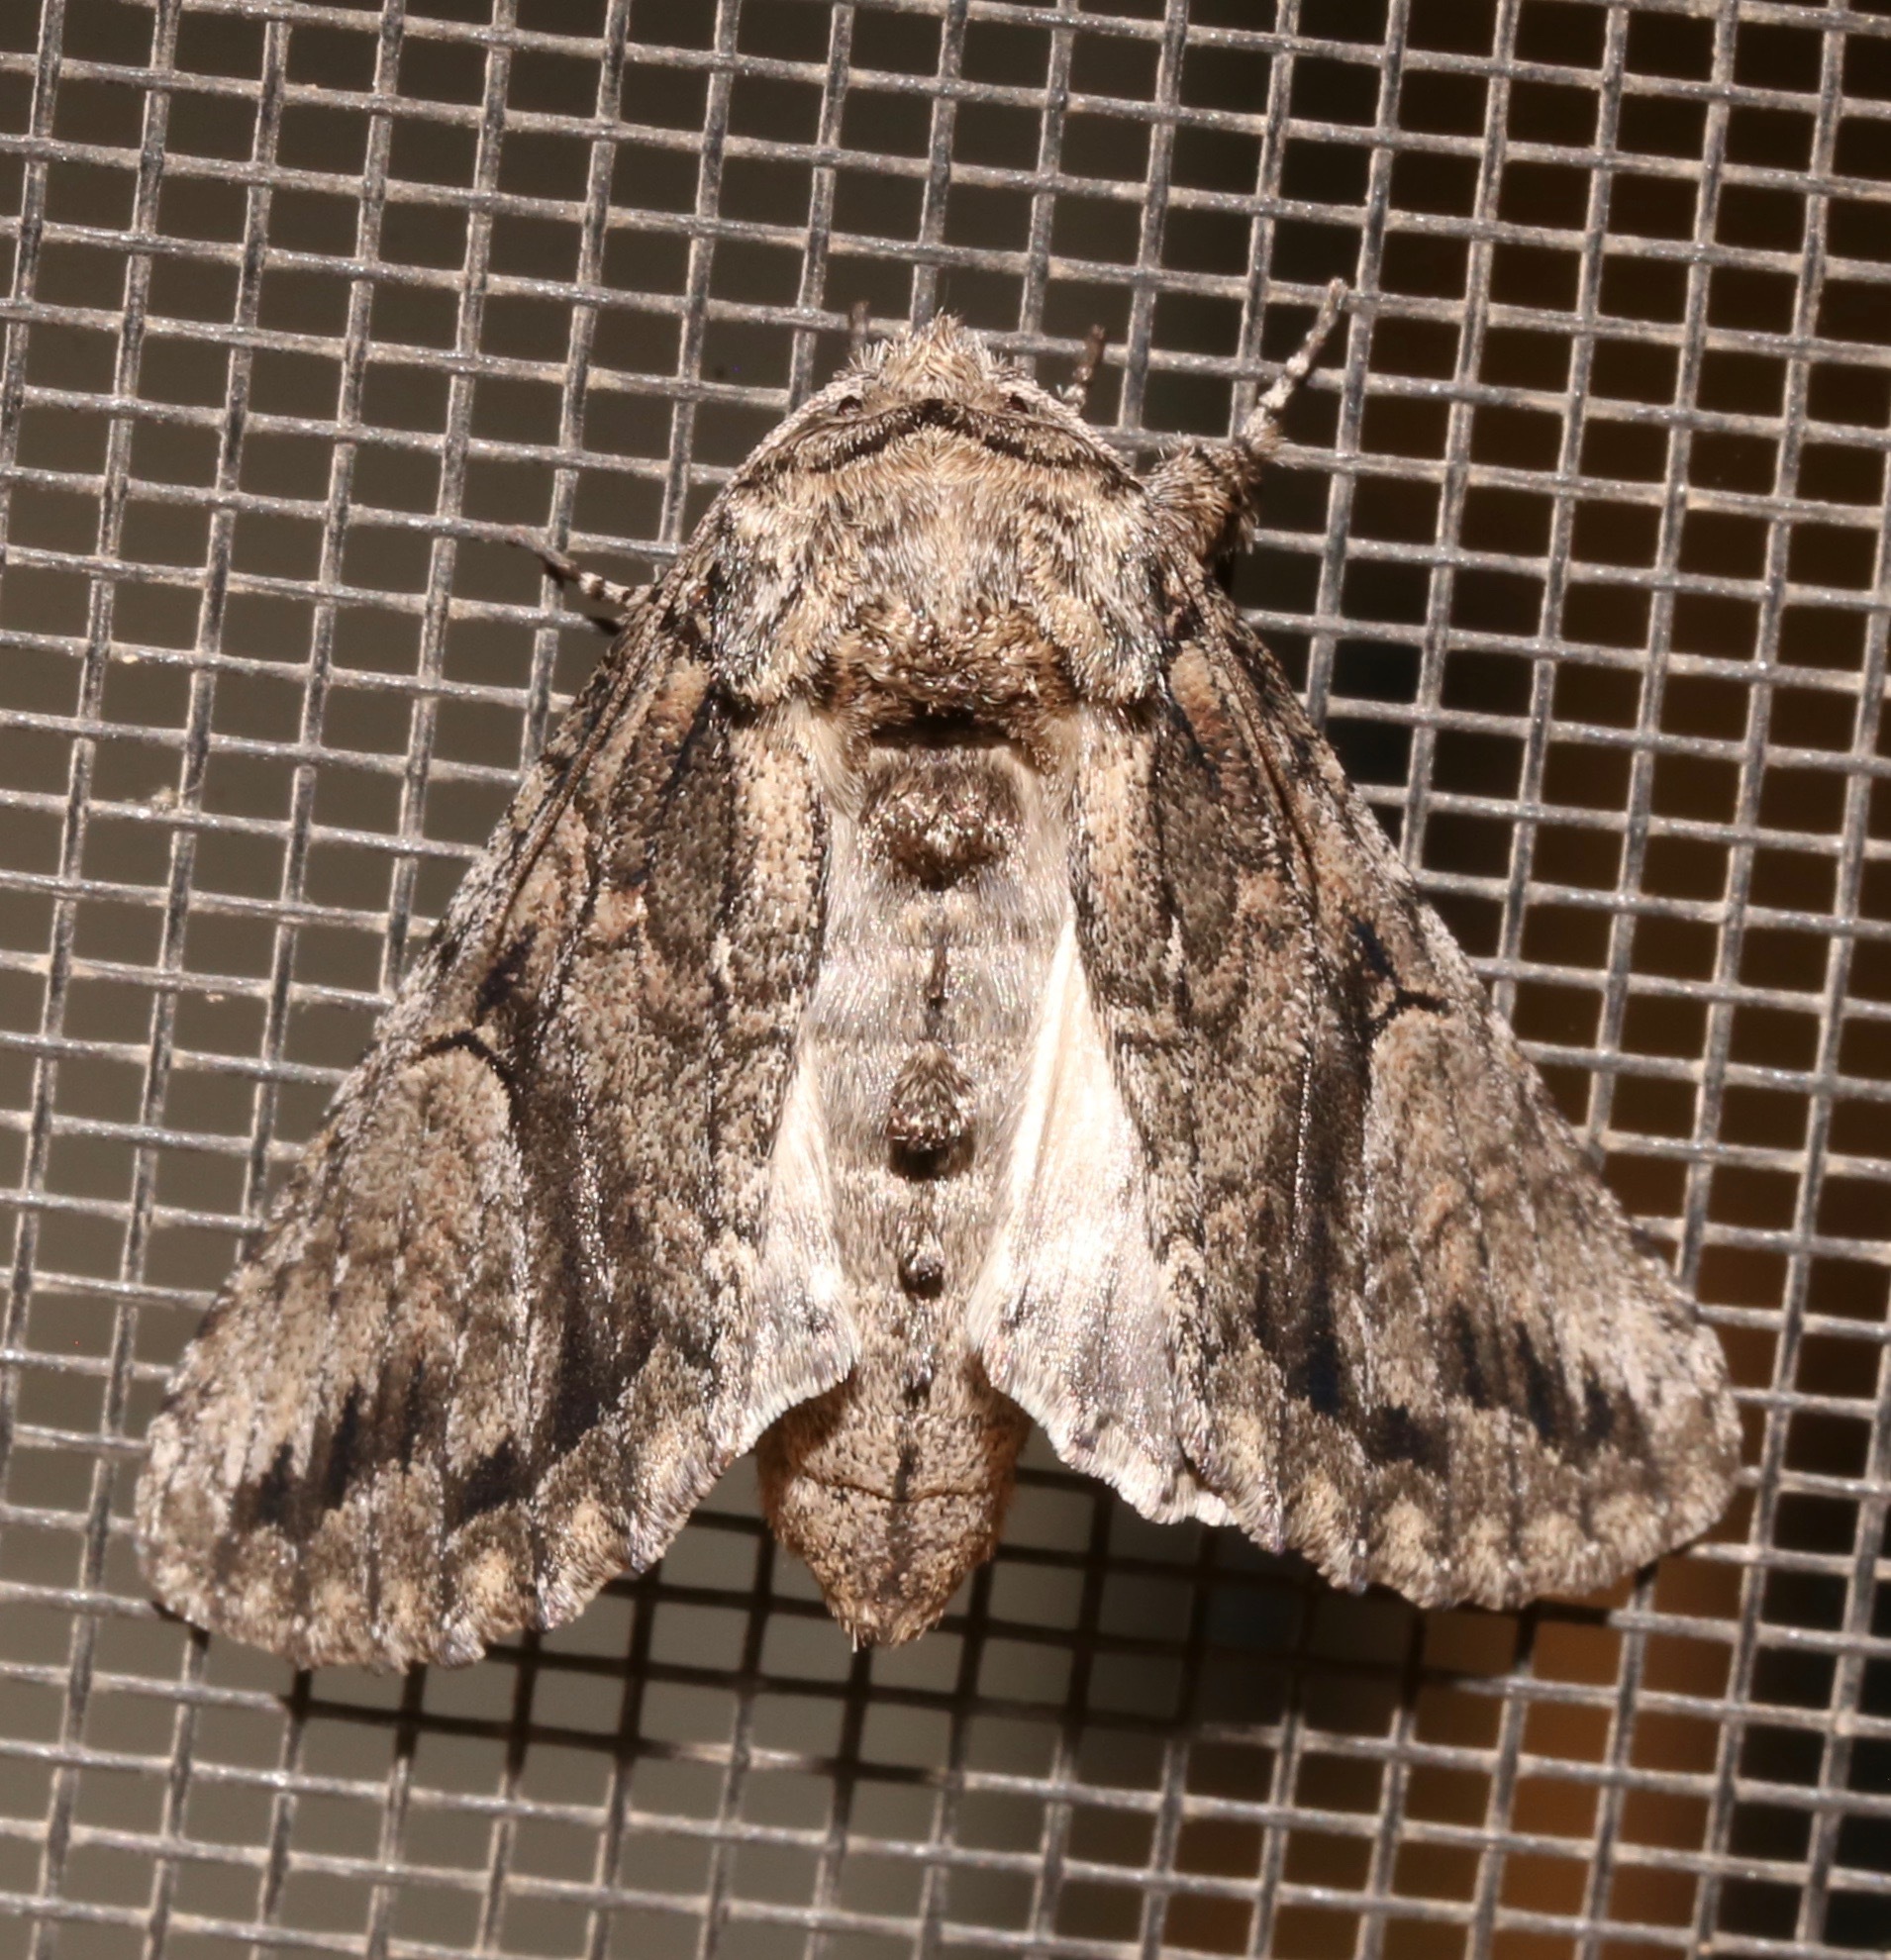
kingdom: Animalia
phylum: Arthropoda
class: Insecta
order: Lepidoptera
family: Notodontidae
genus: Heterocampa
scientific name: Heterocampa averna
